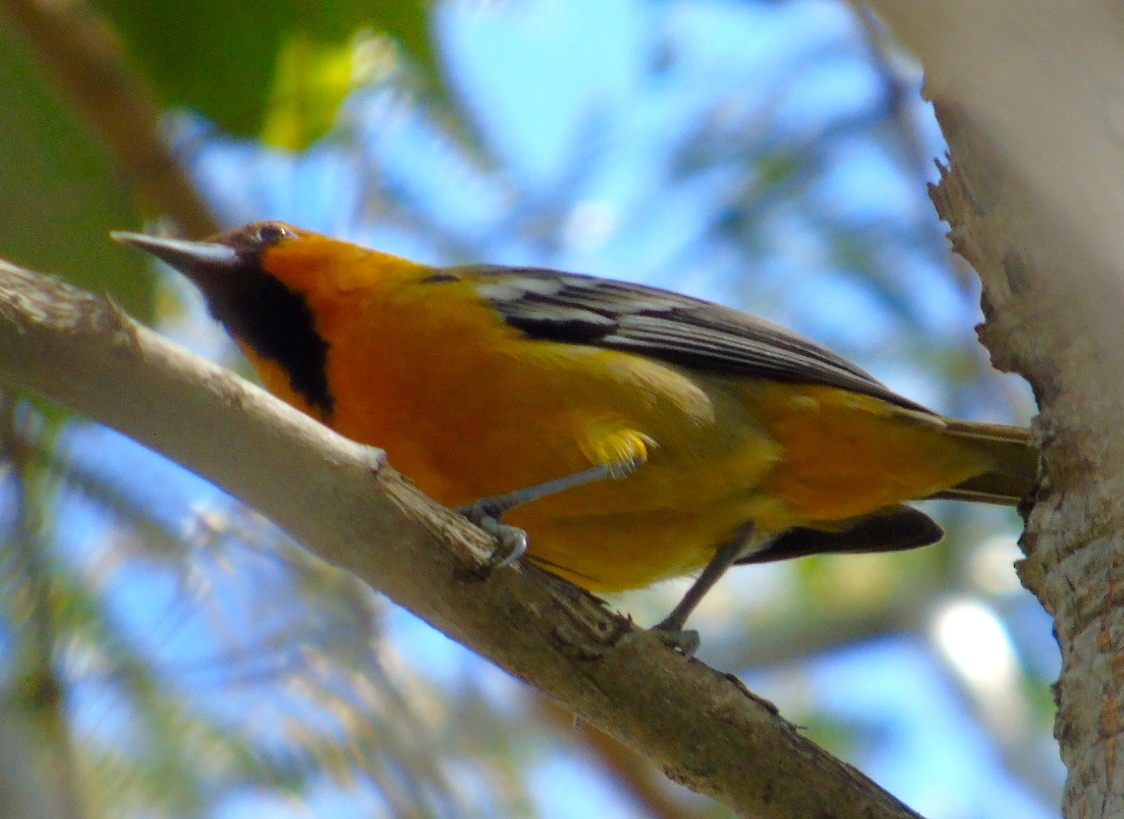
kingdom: Animalia
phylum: Chordata
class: Aves
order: Passeriformes
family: Icteridae
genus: Icterus
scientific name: Icterus pustulatus
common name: Streak-backed oriole
